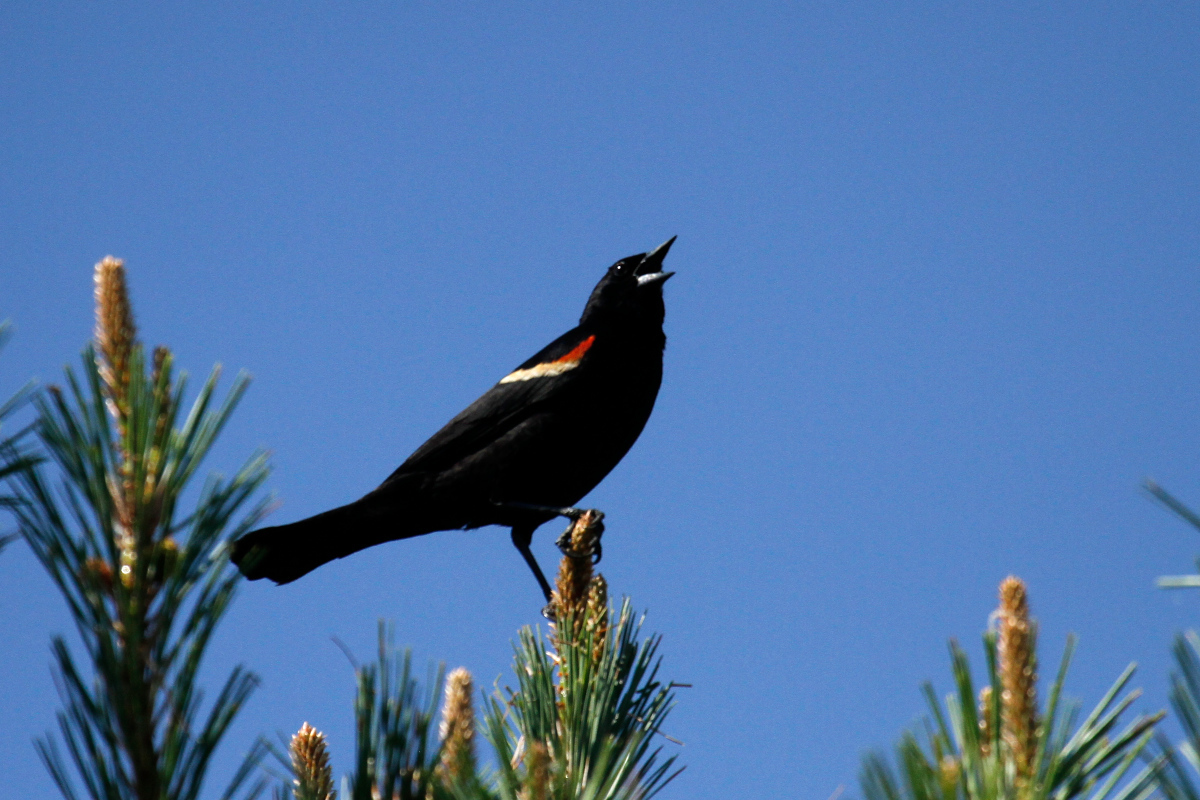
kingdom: Animalia
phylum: Chordata
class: Aves
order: Passeriformes
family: Icteridae
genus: Agelaius
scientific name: Agelaius phoeniceus
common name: Red-winged blackbird
